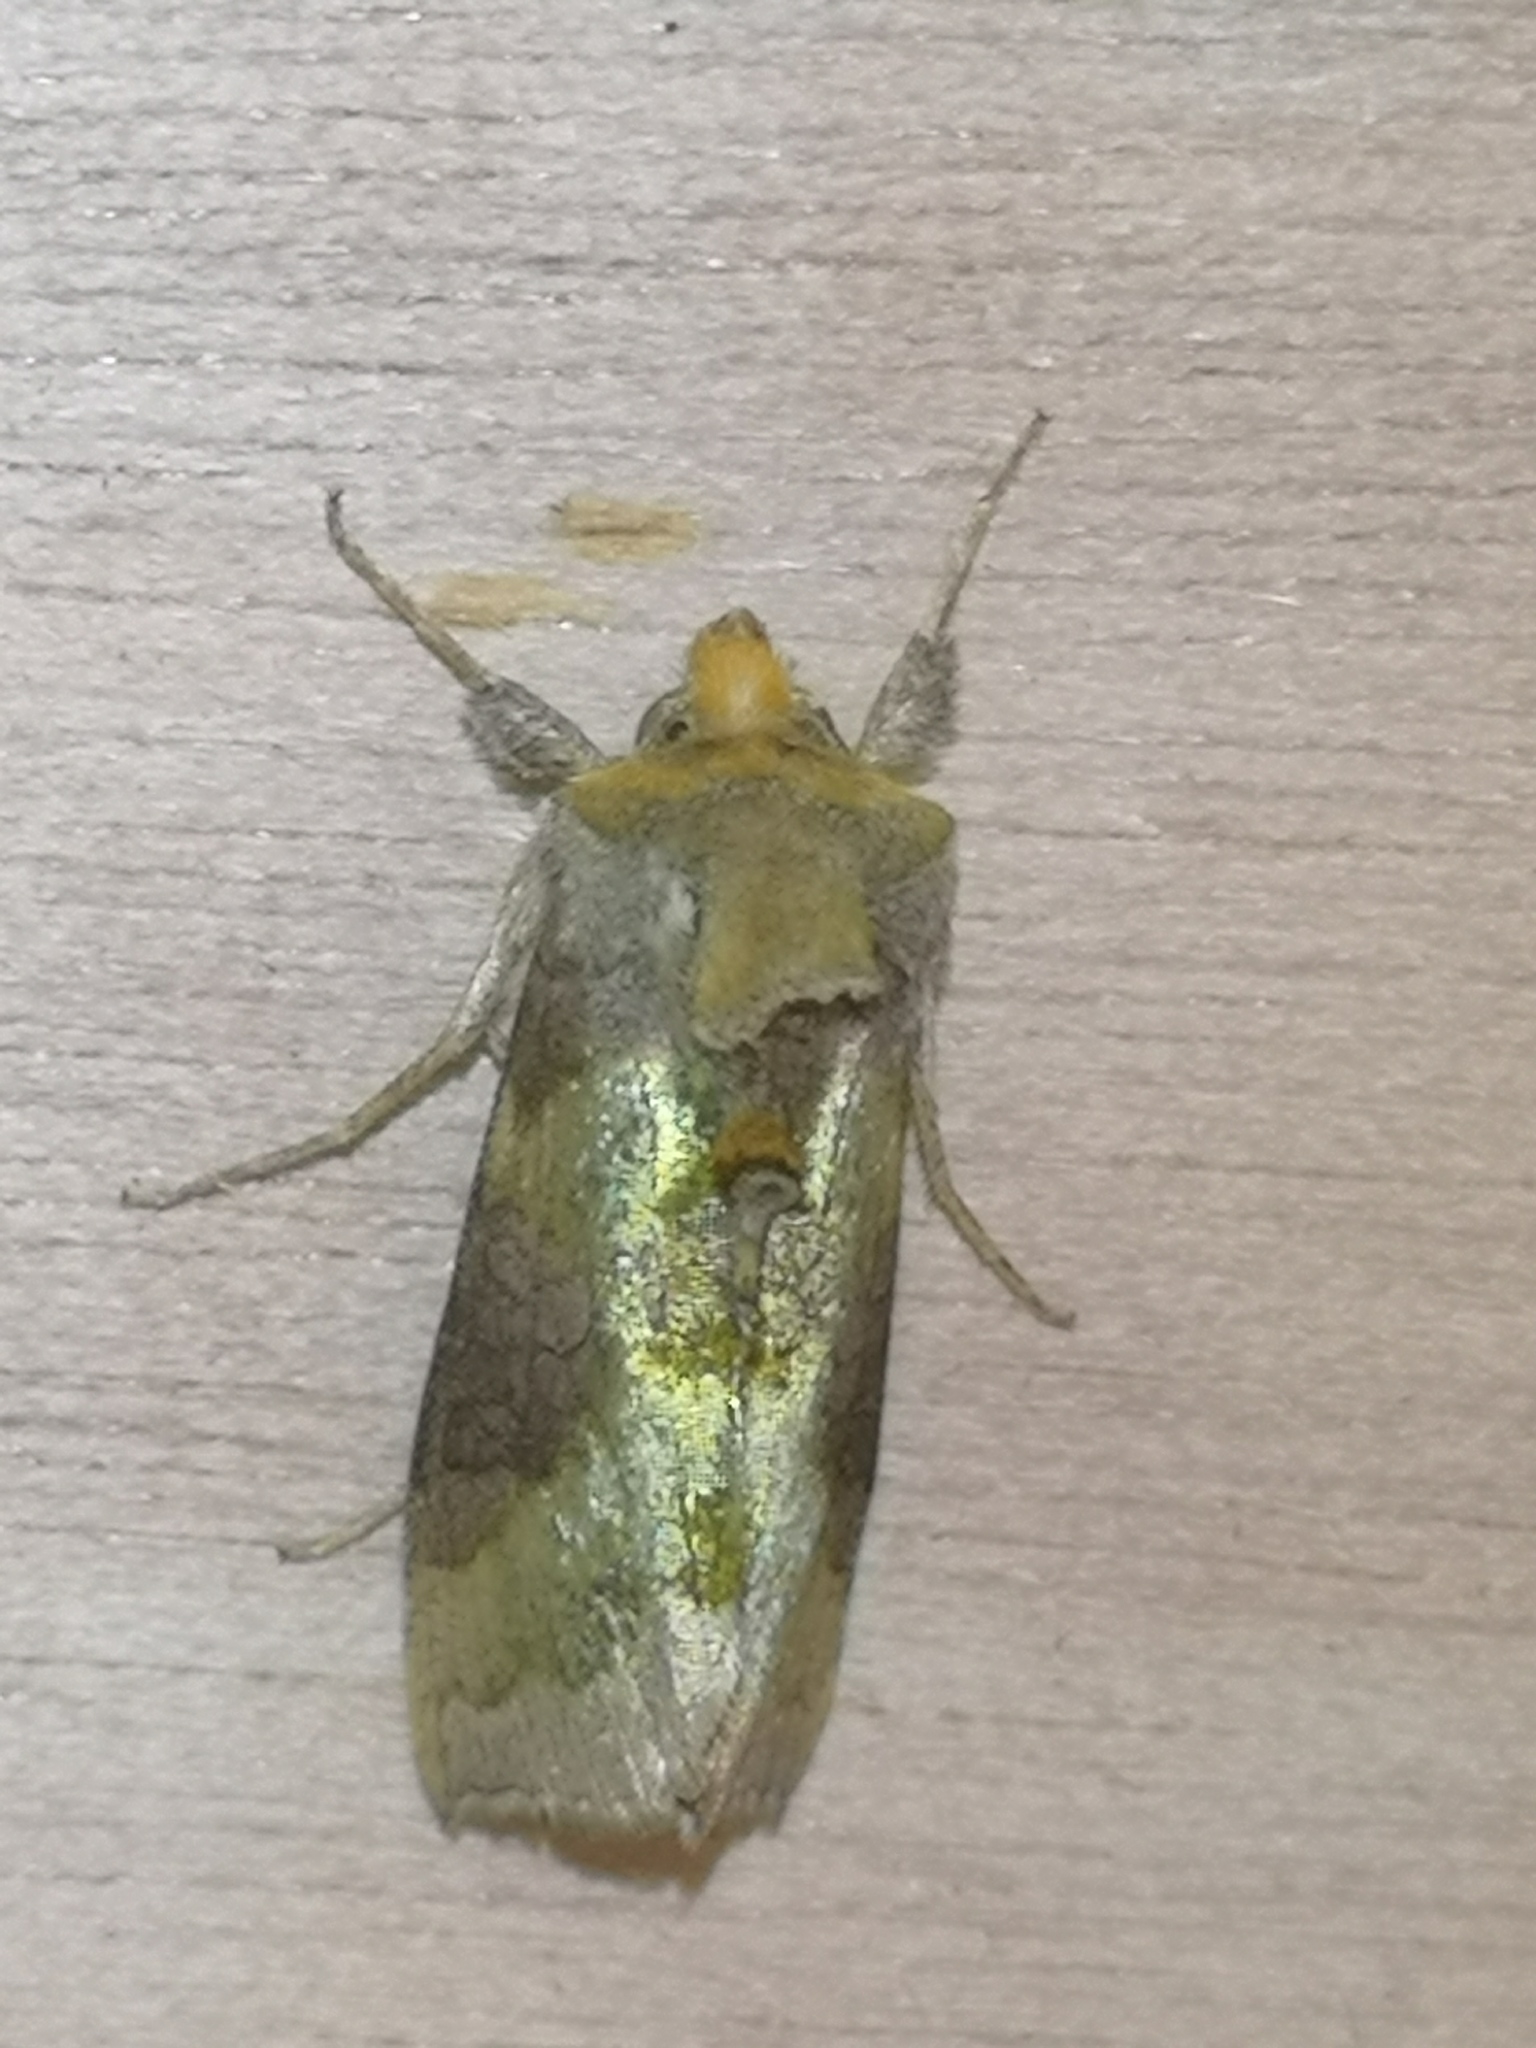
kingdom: Animalia
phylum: Arthropoda
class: Insecta
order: Lepidoptera
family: Noctuidae
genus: Diachrysia
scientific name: Diachrysia chrysitis
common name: Burnished brass
